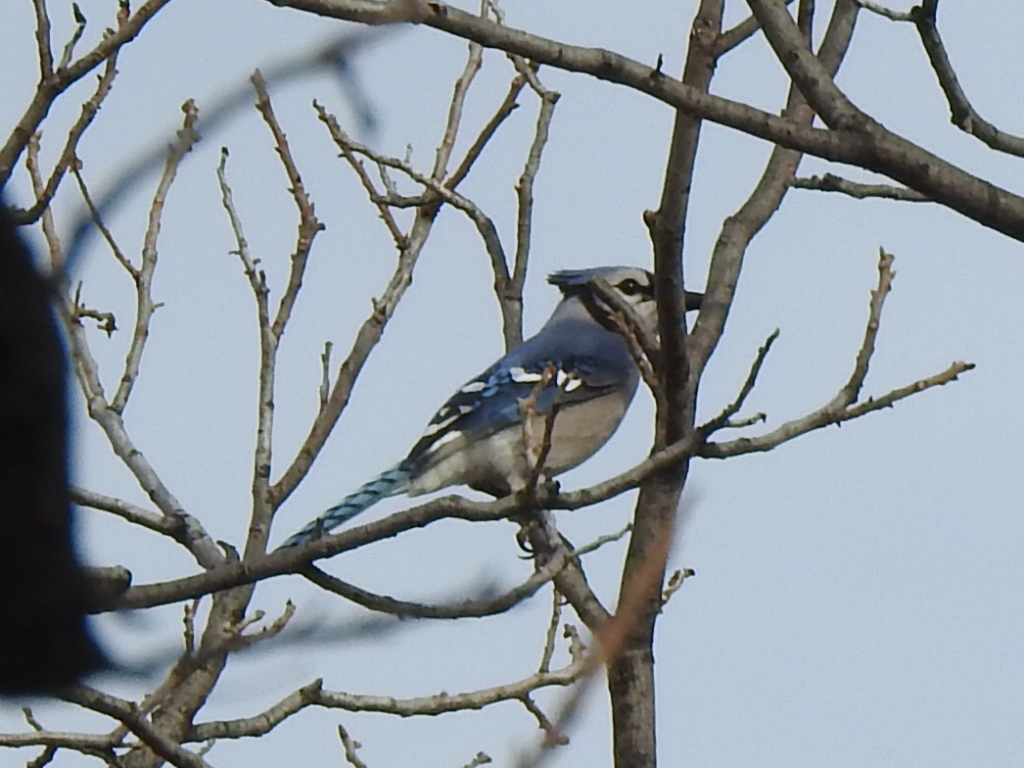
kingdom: Animalia
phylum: Chordata
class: Aves
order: Passeriformes
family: Corvidae
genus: Cyanocitta
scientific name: Cyanocitta cristata
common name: Blue jay
